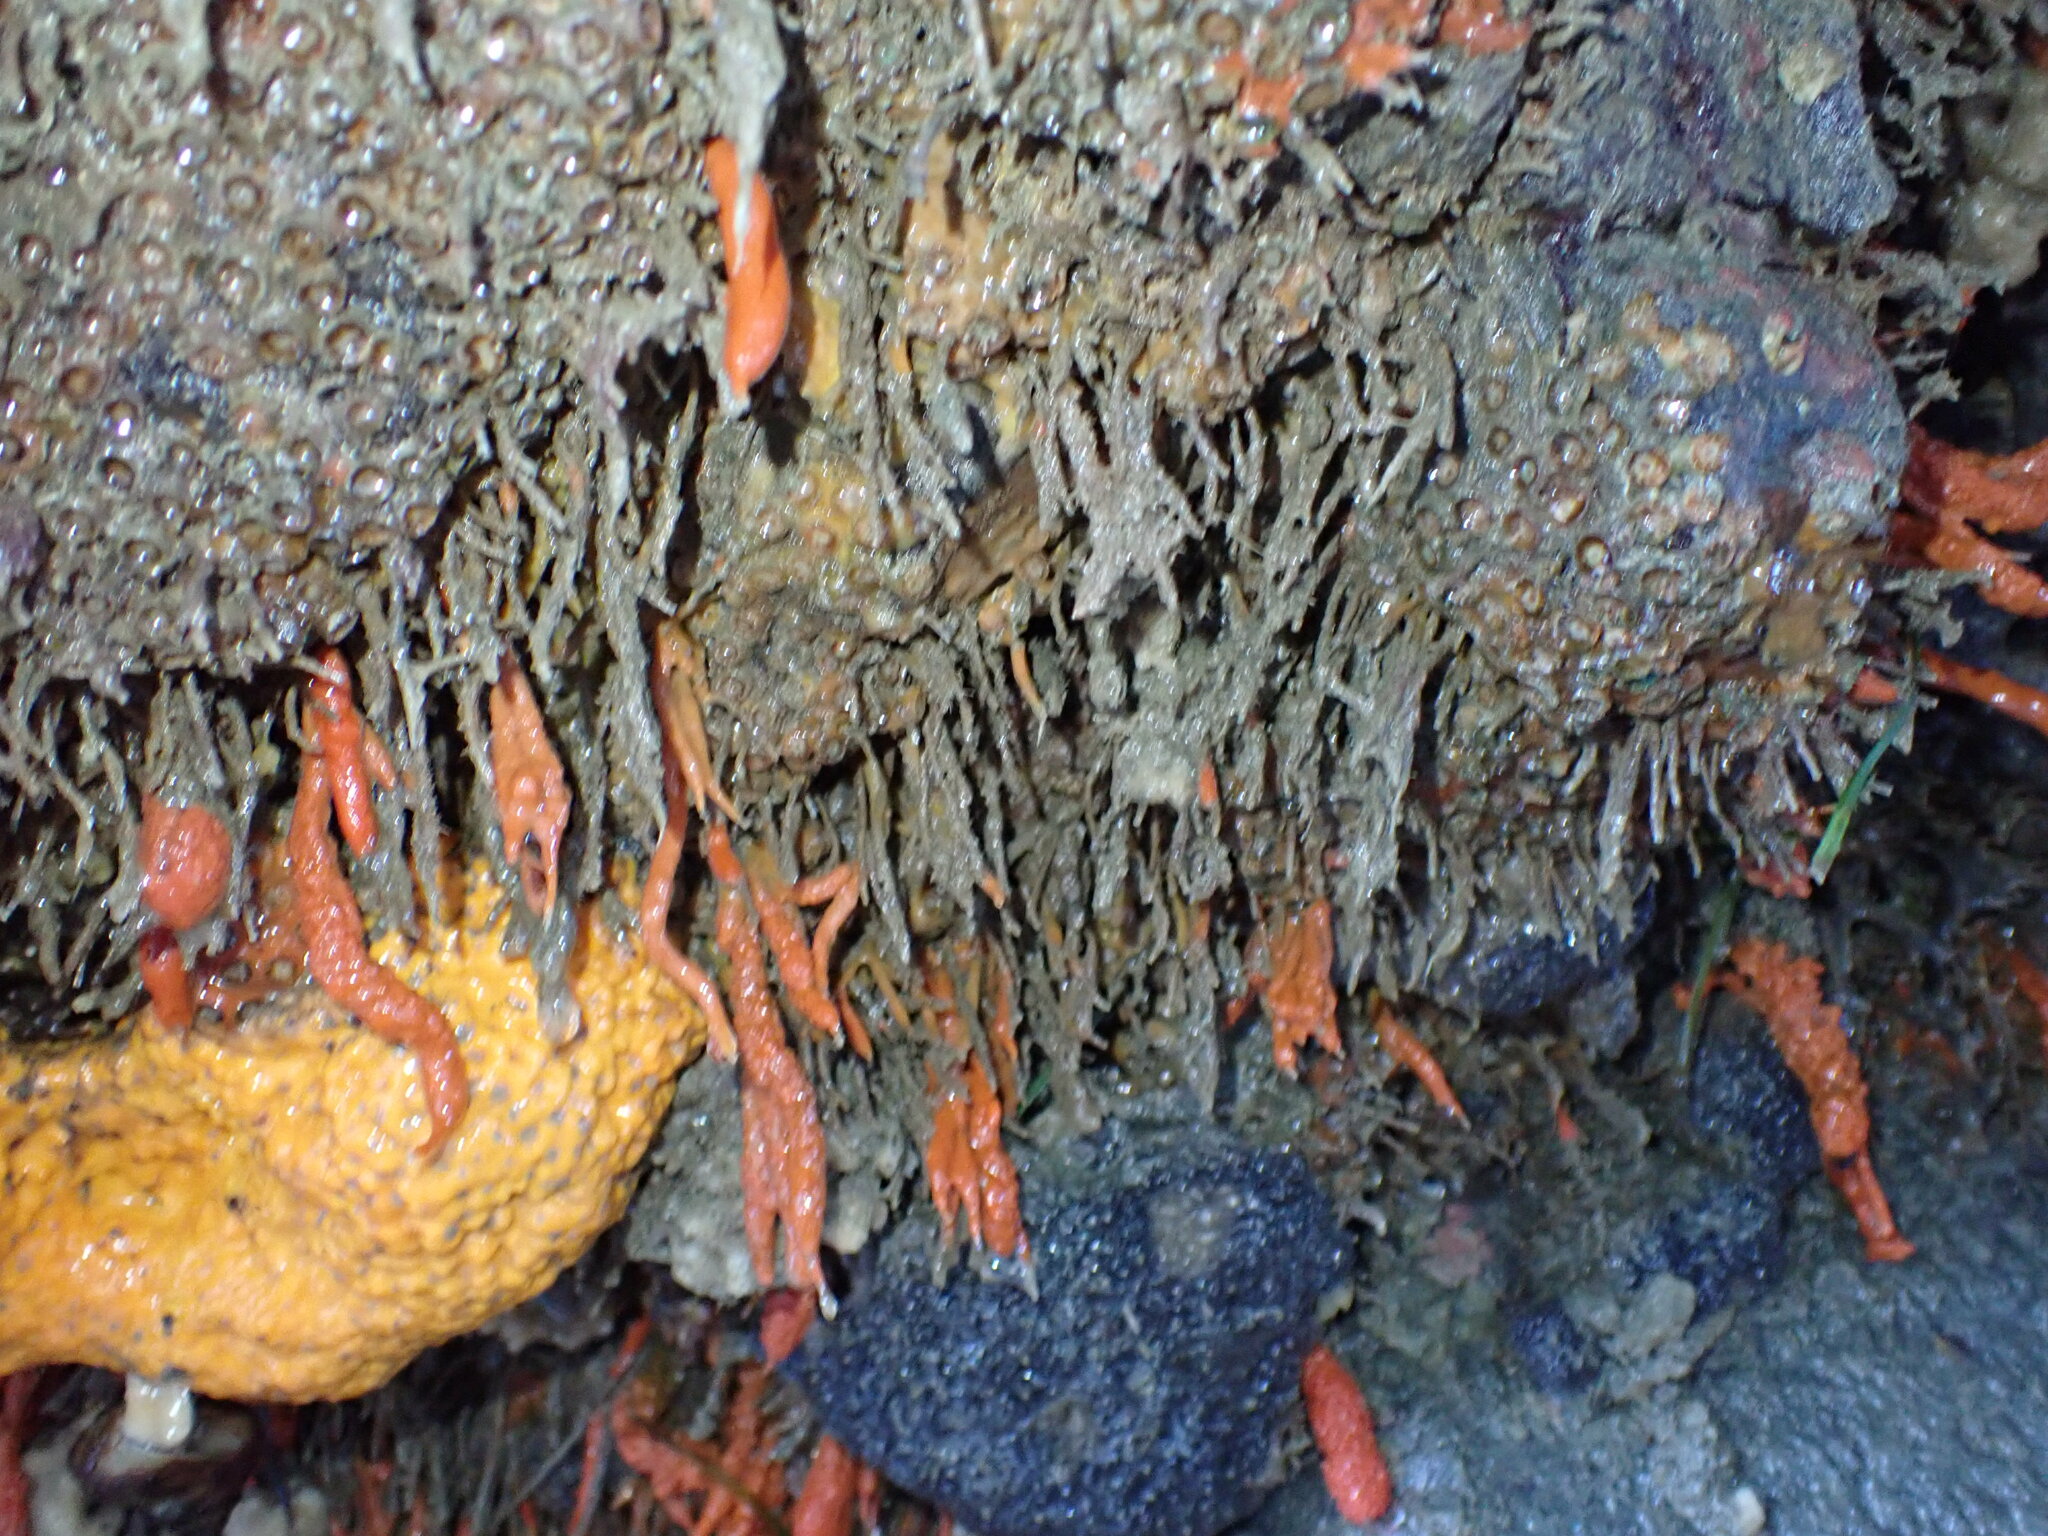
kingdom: Animalia
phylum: Cnidaria
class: Anthozoa
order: Scleractinia
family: Rhizangiidae
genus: Culicia
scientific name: Culicia rubeola
